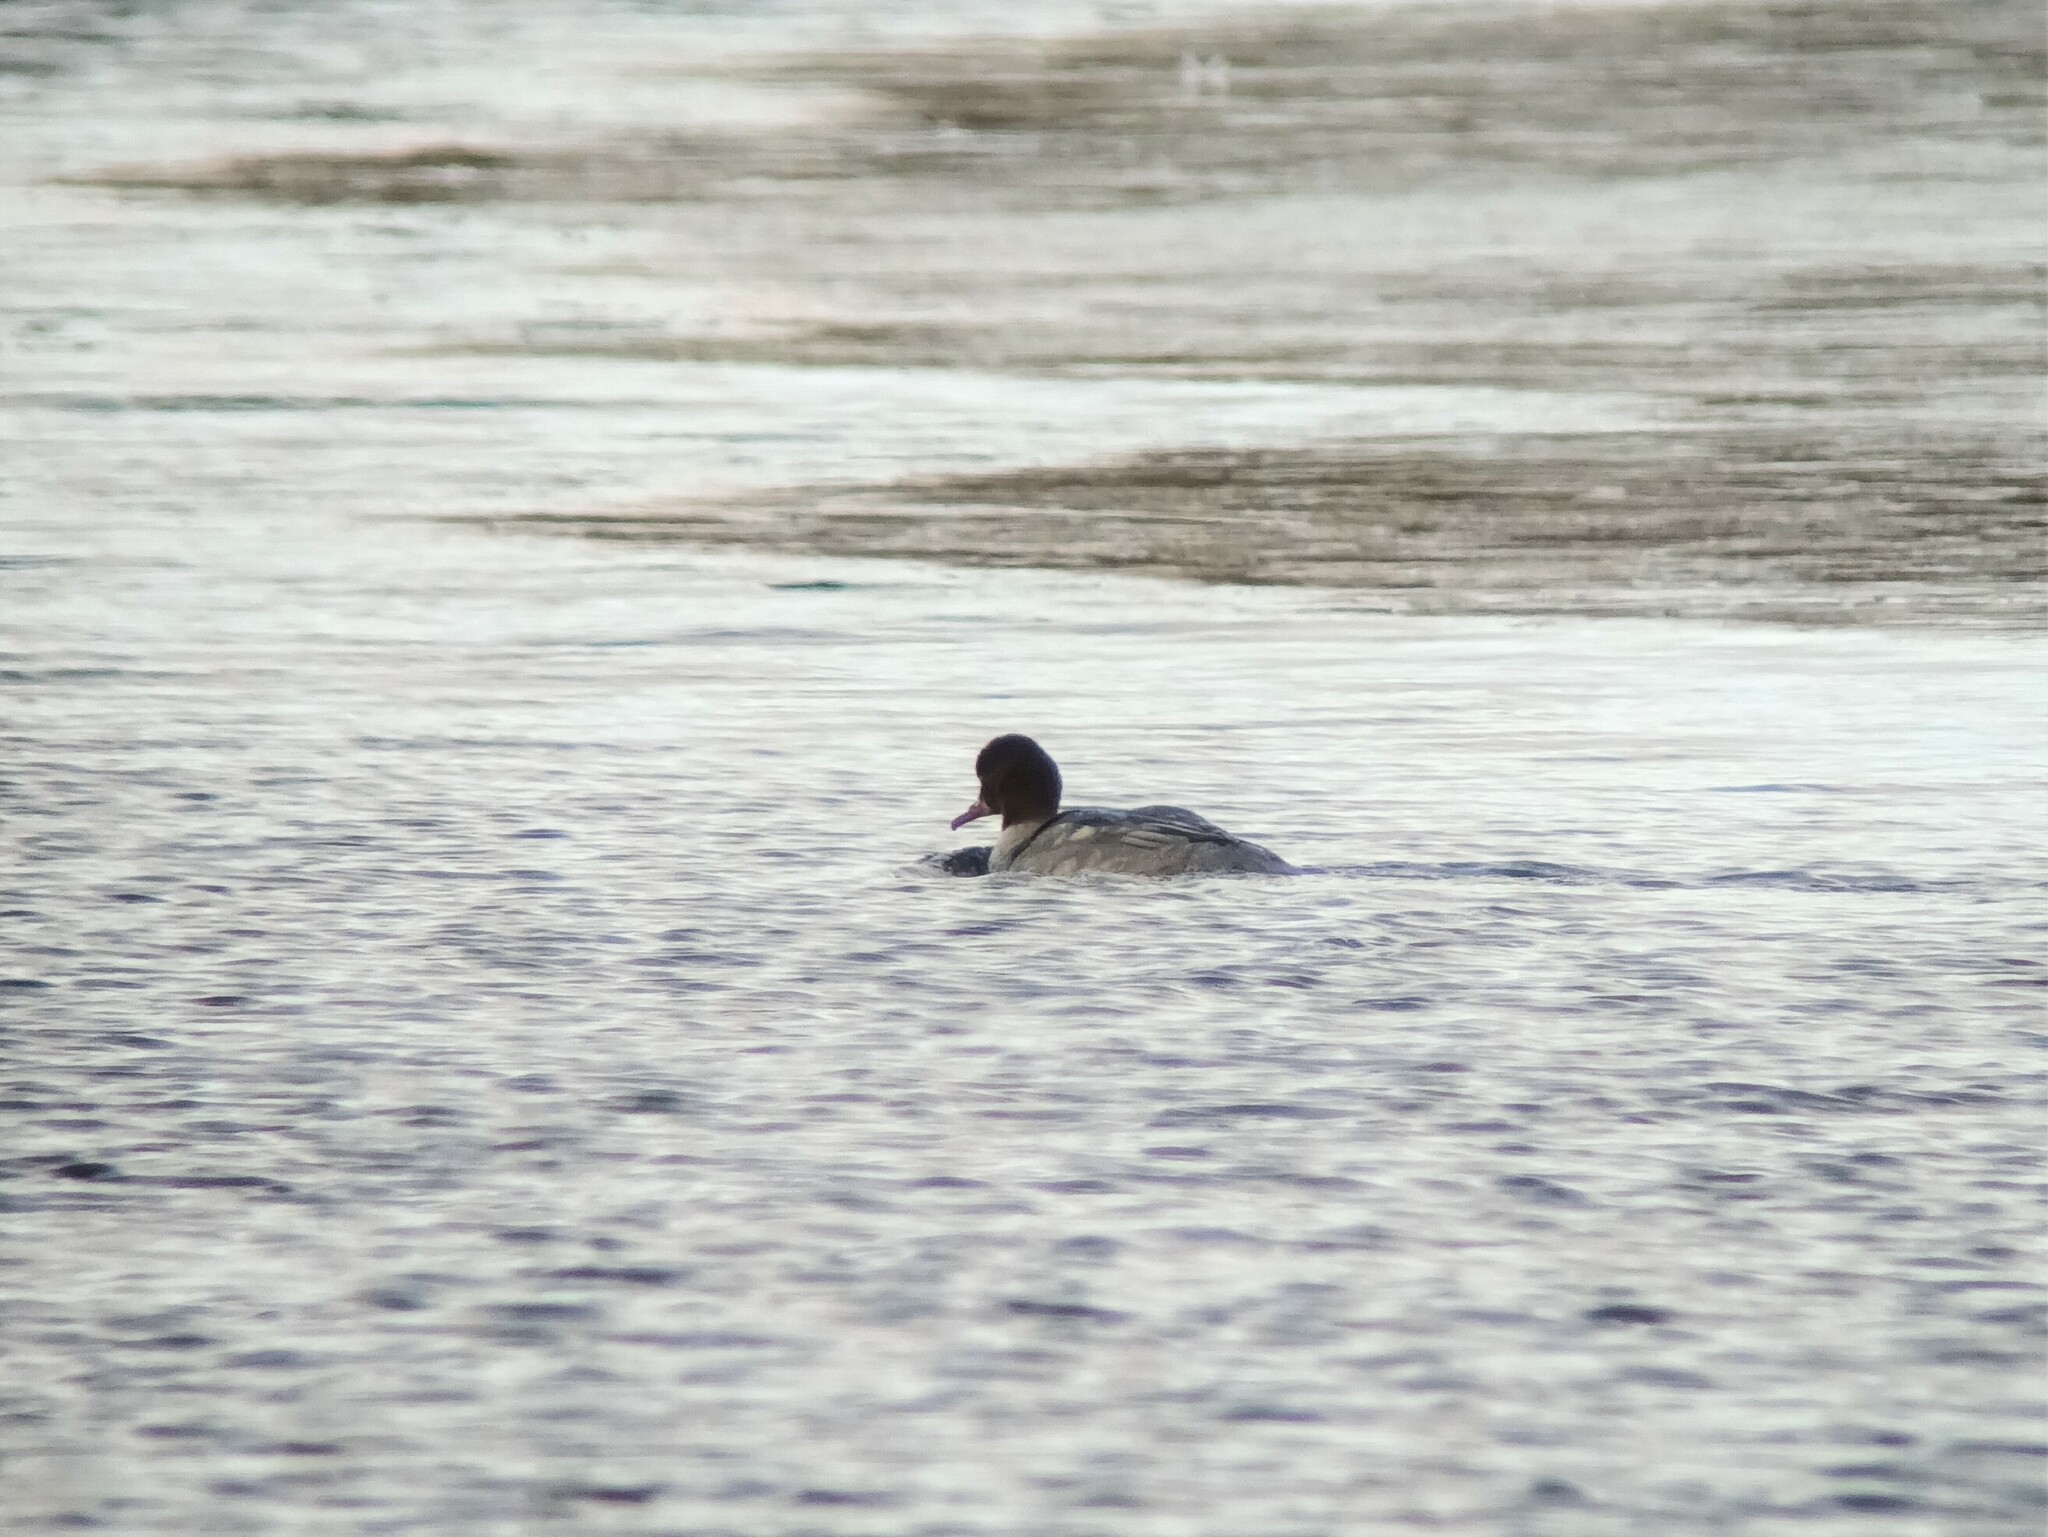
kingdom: Animalia
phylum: Chordata
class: Aves
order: Anseriformes
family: Anatidae
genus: Mergus
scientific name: Mergus merganser
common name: Common merganser
